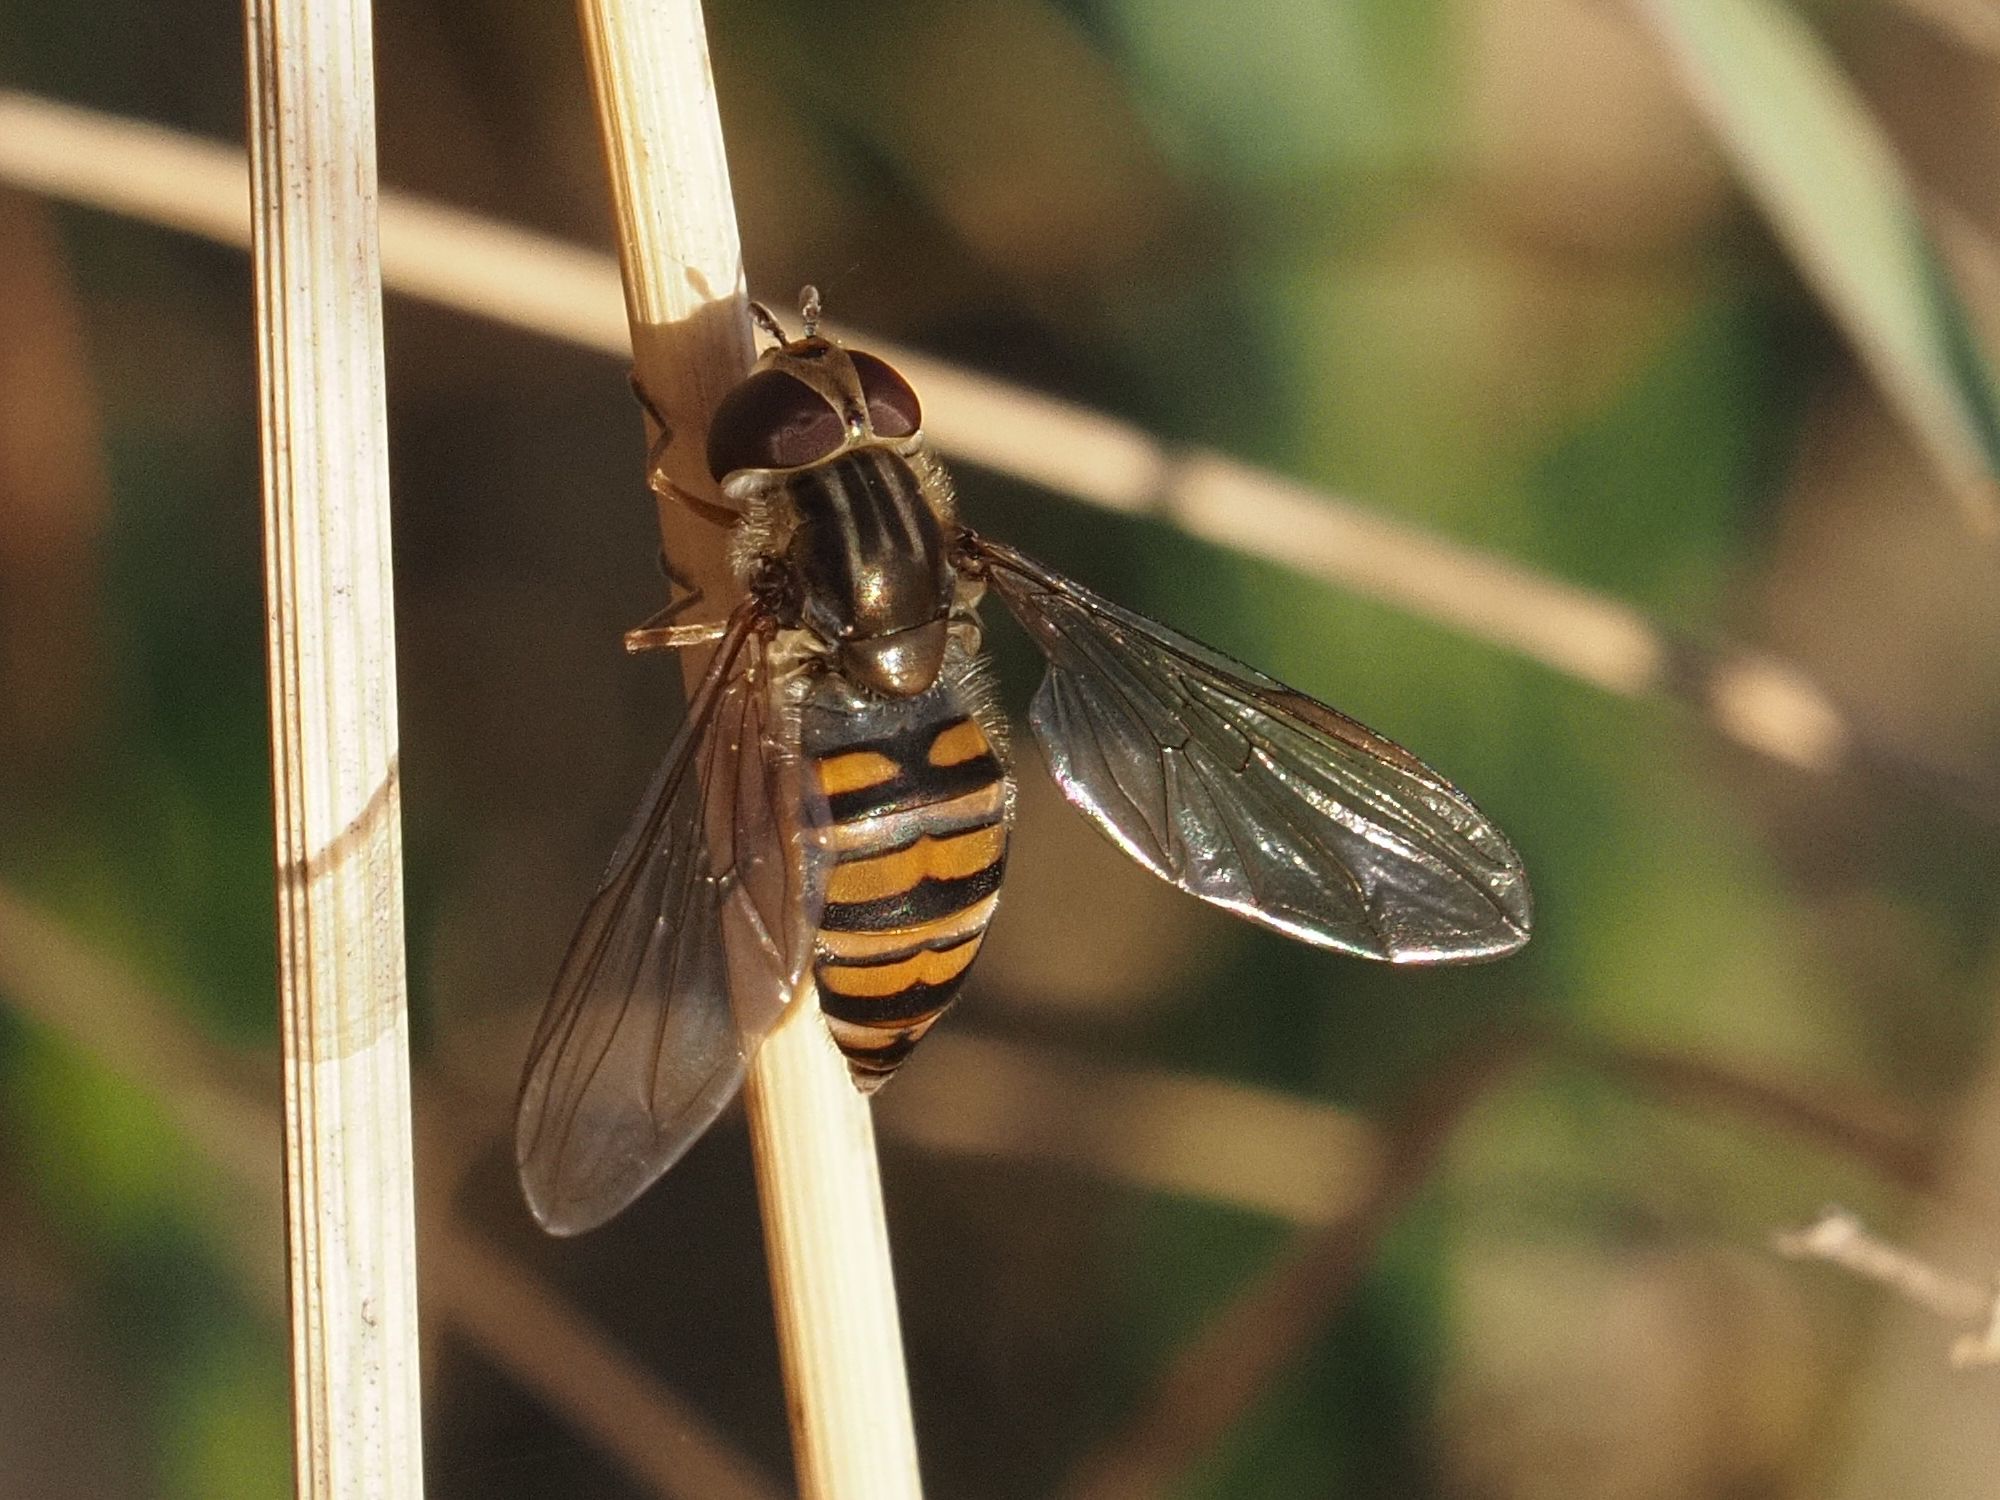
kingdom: Animalia
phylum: Arthropoda
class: Insecta
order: Diptera
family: Syrphidae
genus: Episyrphus
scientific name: Episyrphus balteatus
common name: Marmalade hoverfly
